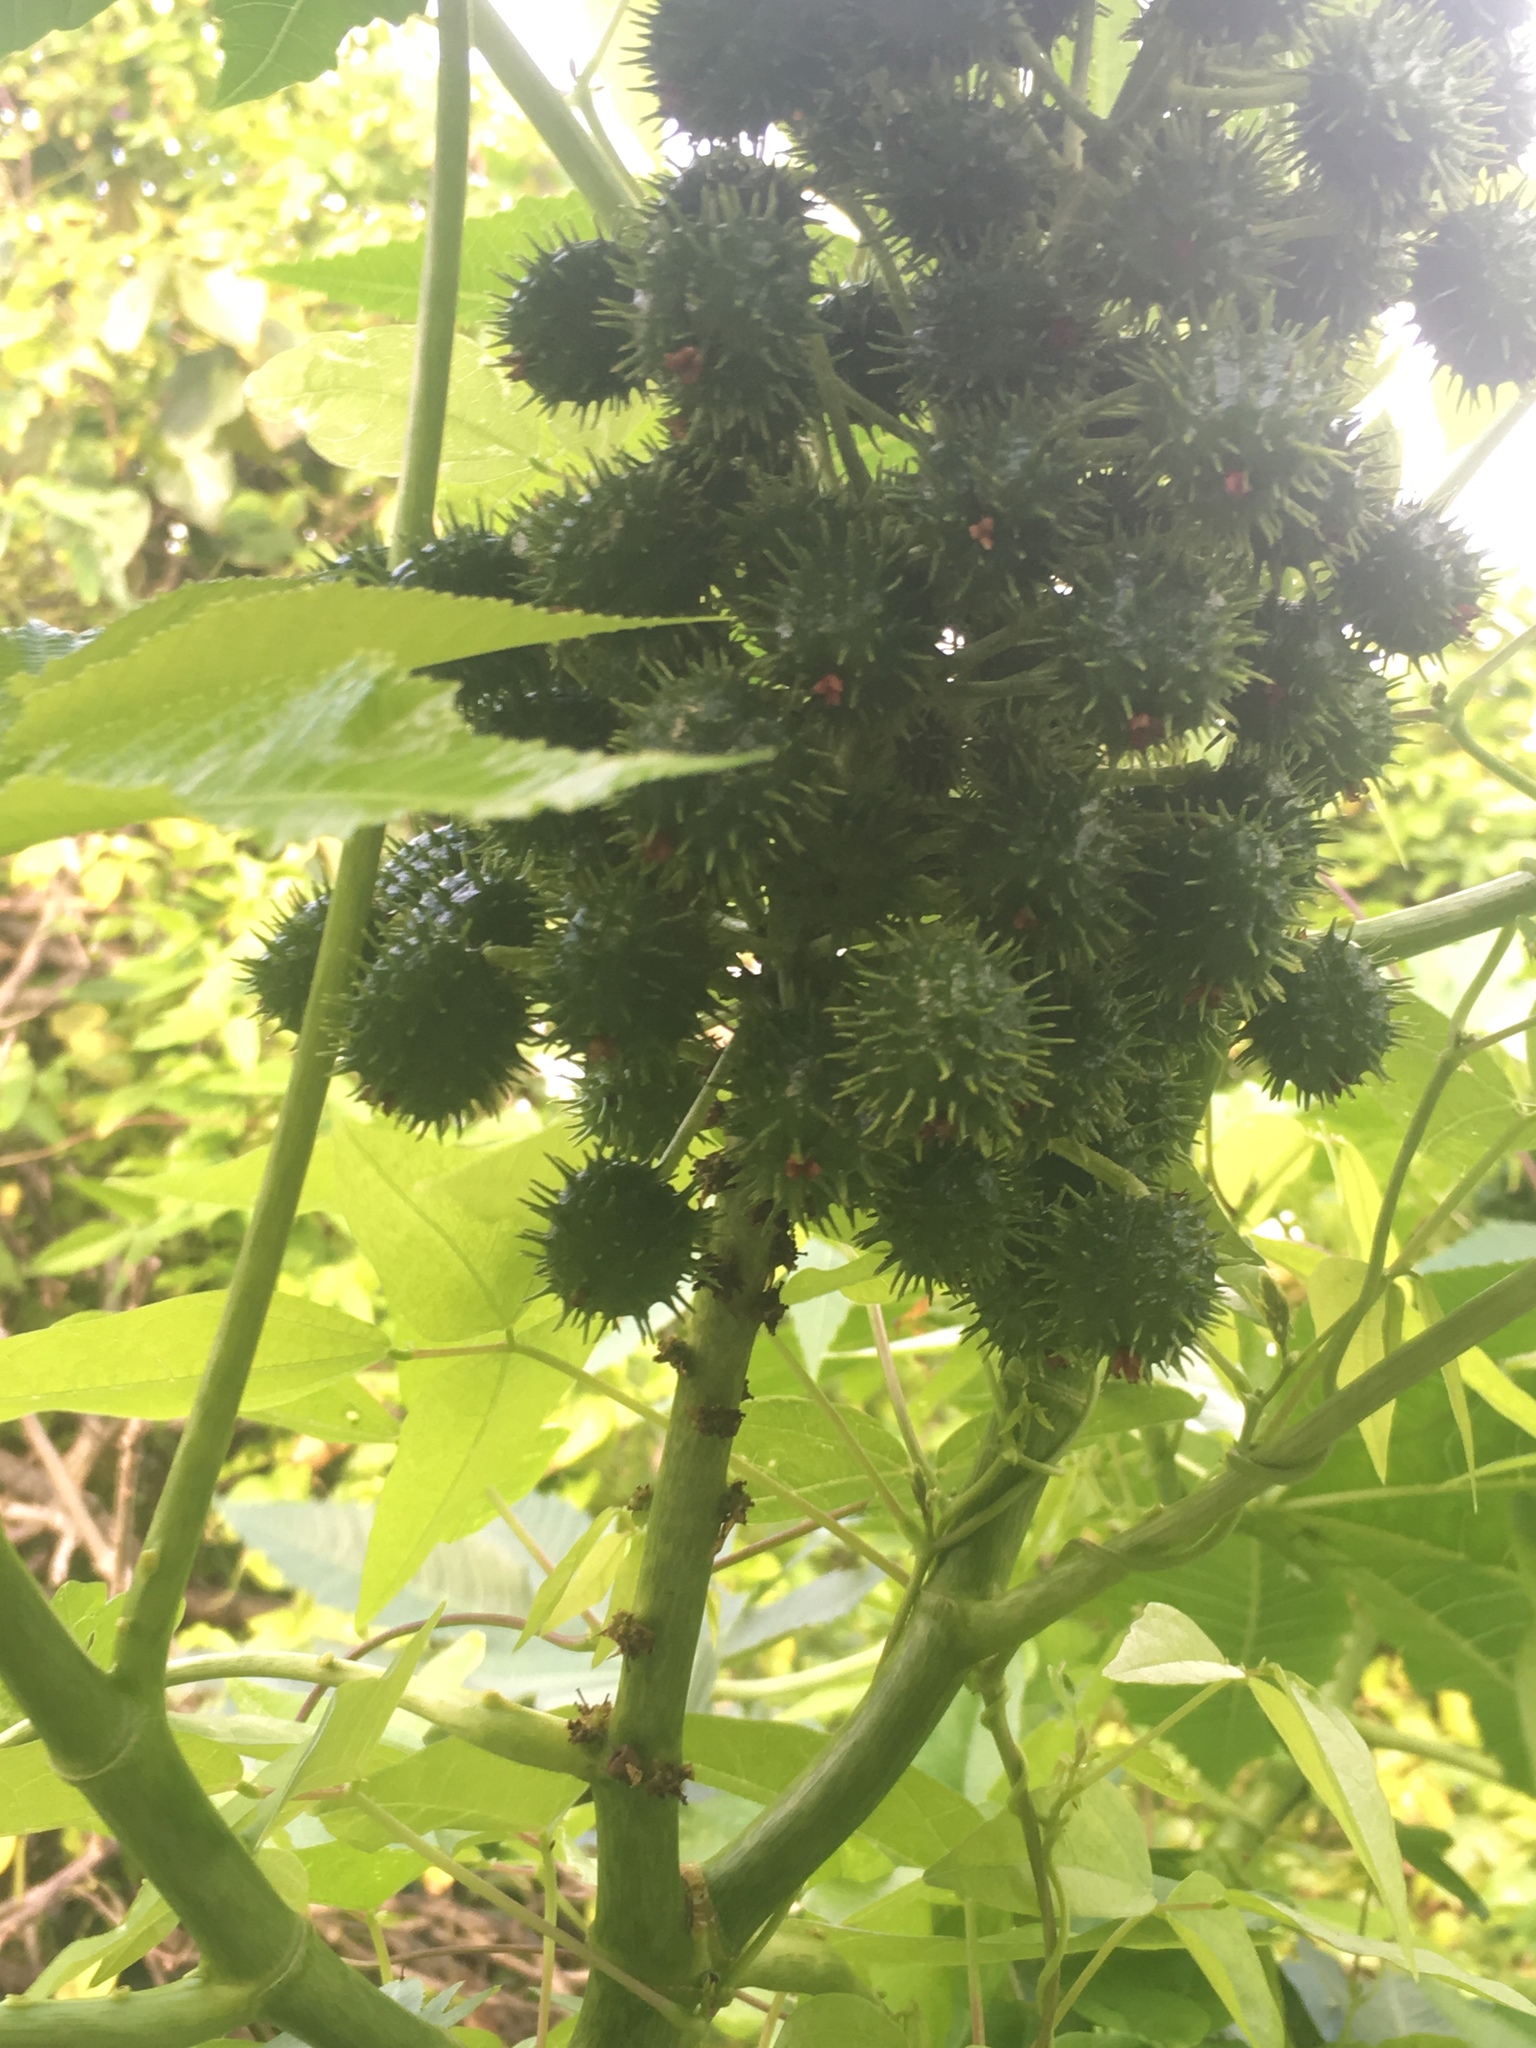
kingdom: Plantae
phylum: Tracheophyta
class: Magnoliopsida
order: Malpighiales
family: Euphorbiaceae
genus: Ricinus
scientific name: Ricinus communis
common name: Castor-oil-plant
